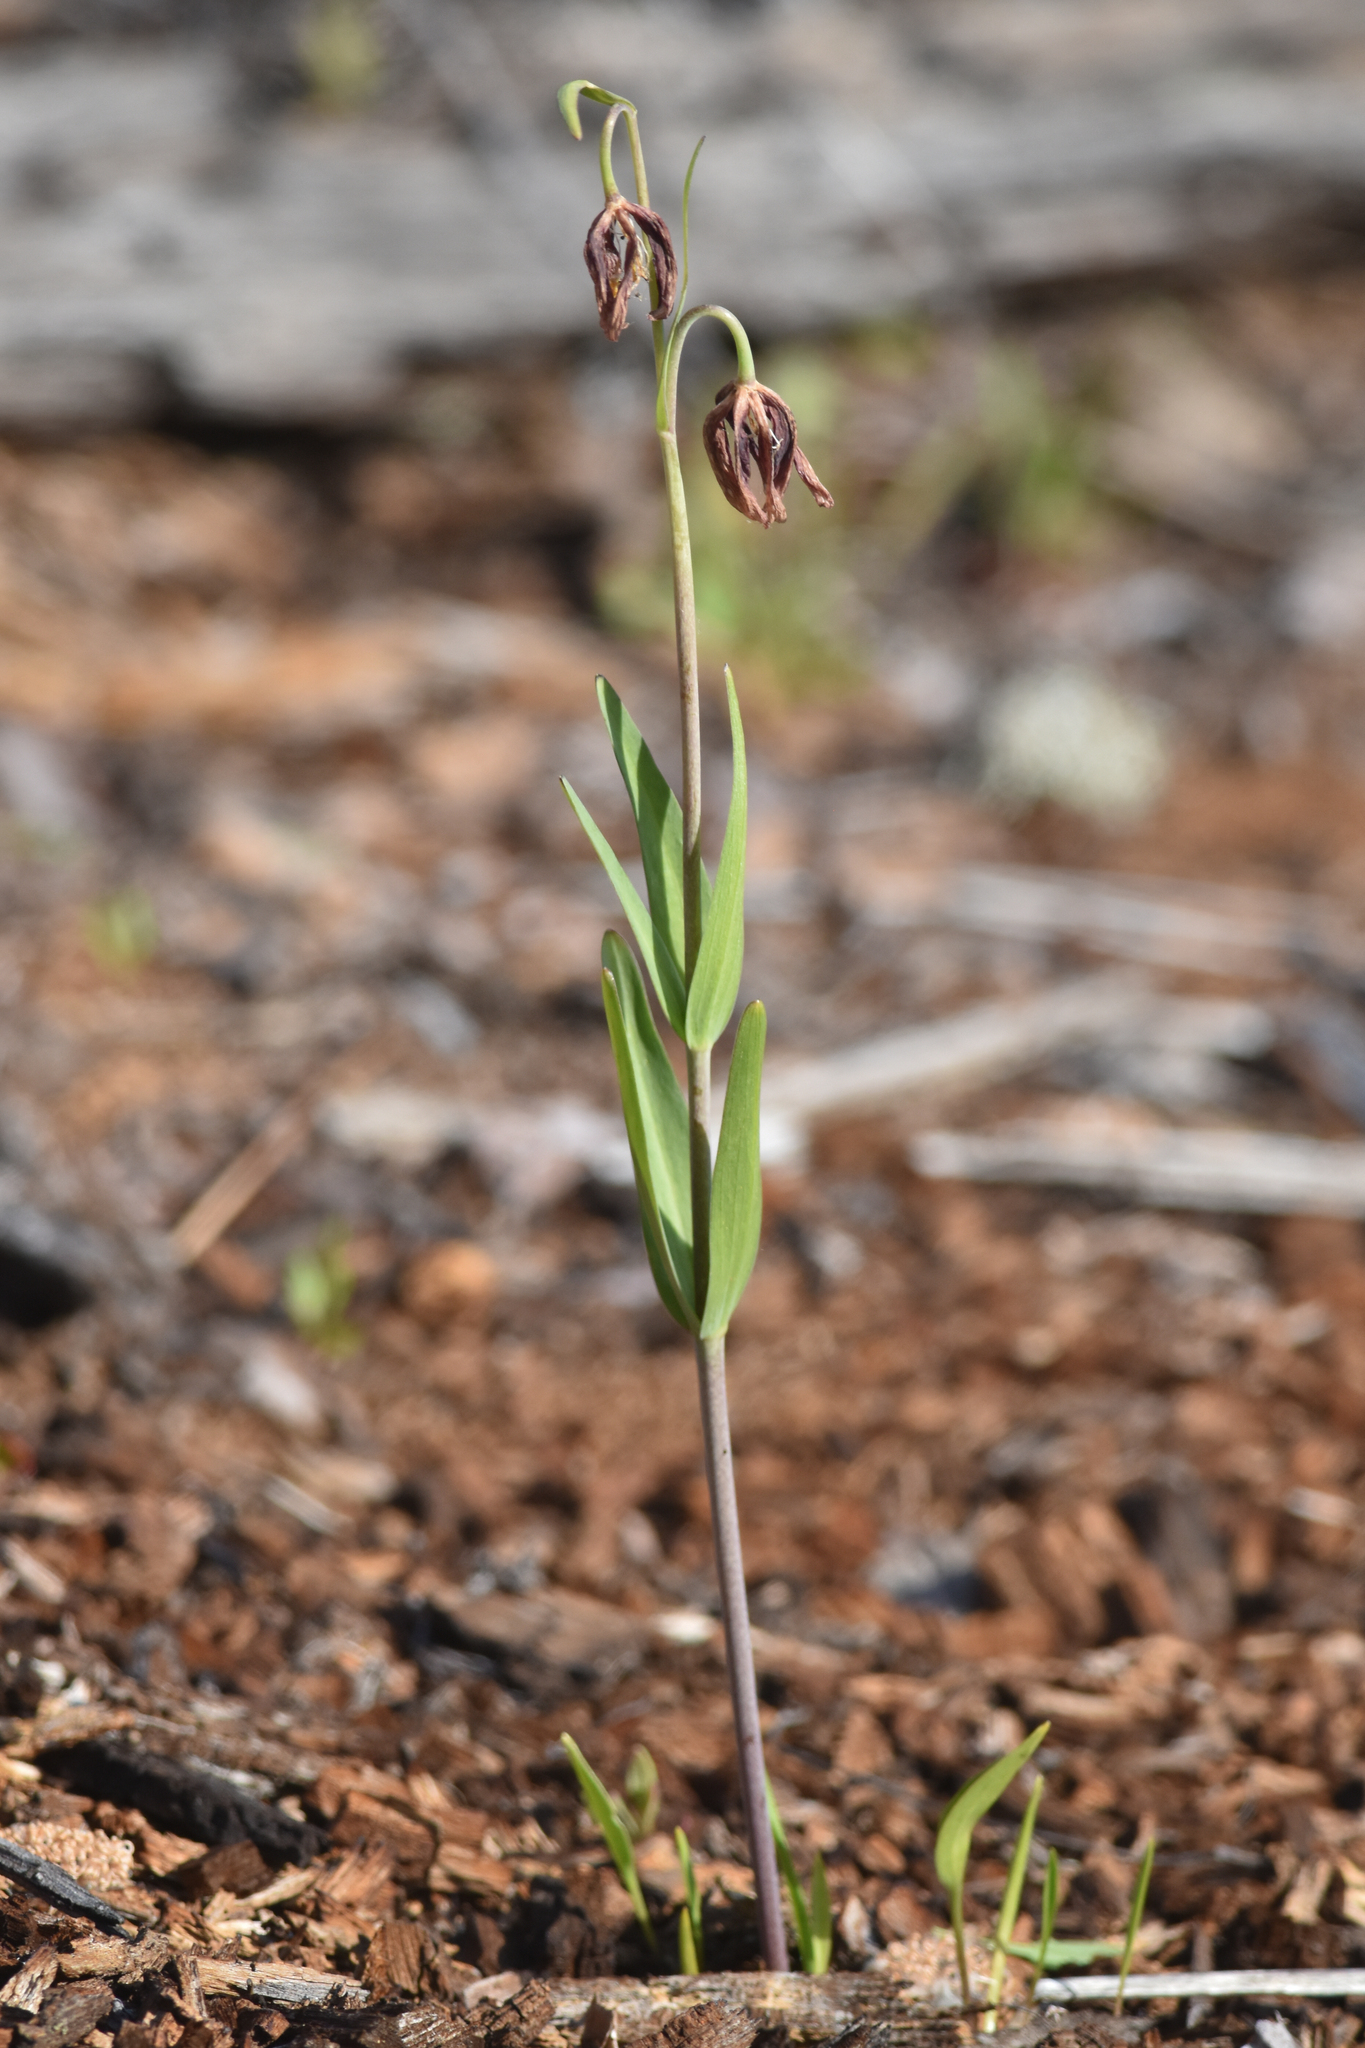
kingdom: Plantae
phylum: Tracheophyta
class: Liliopsida
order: Liliales
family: Liliaceae
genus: Fritillaria
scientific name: Fritillaria affinis
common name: Ojai fritillary
